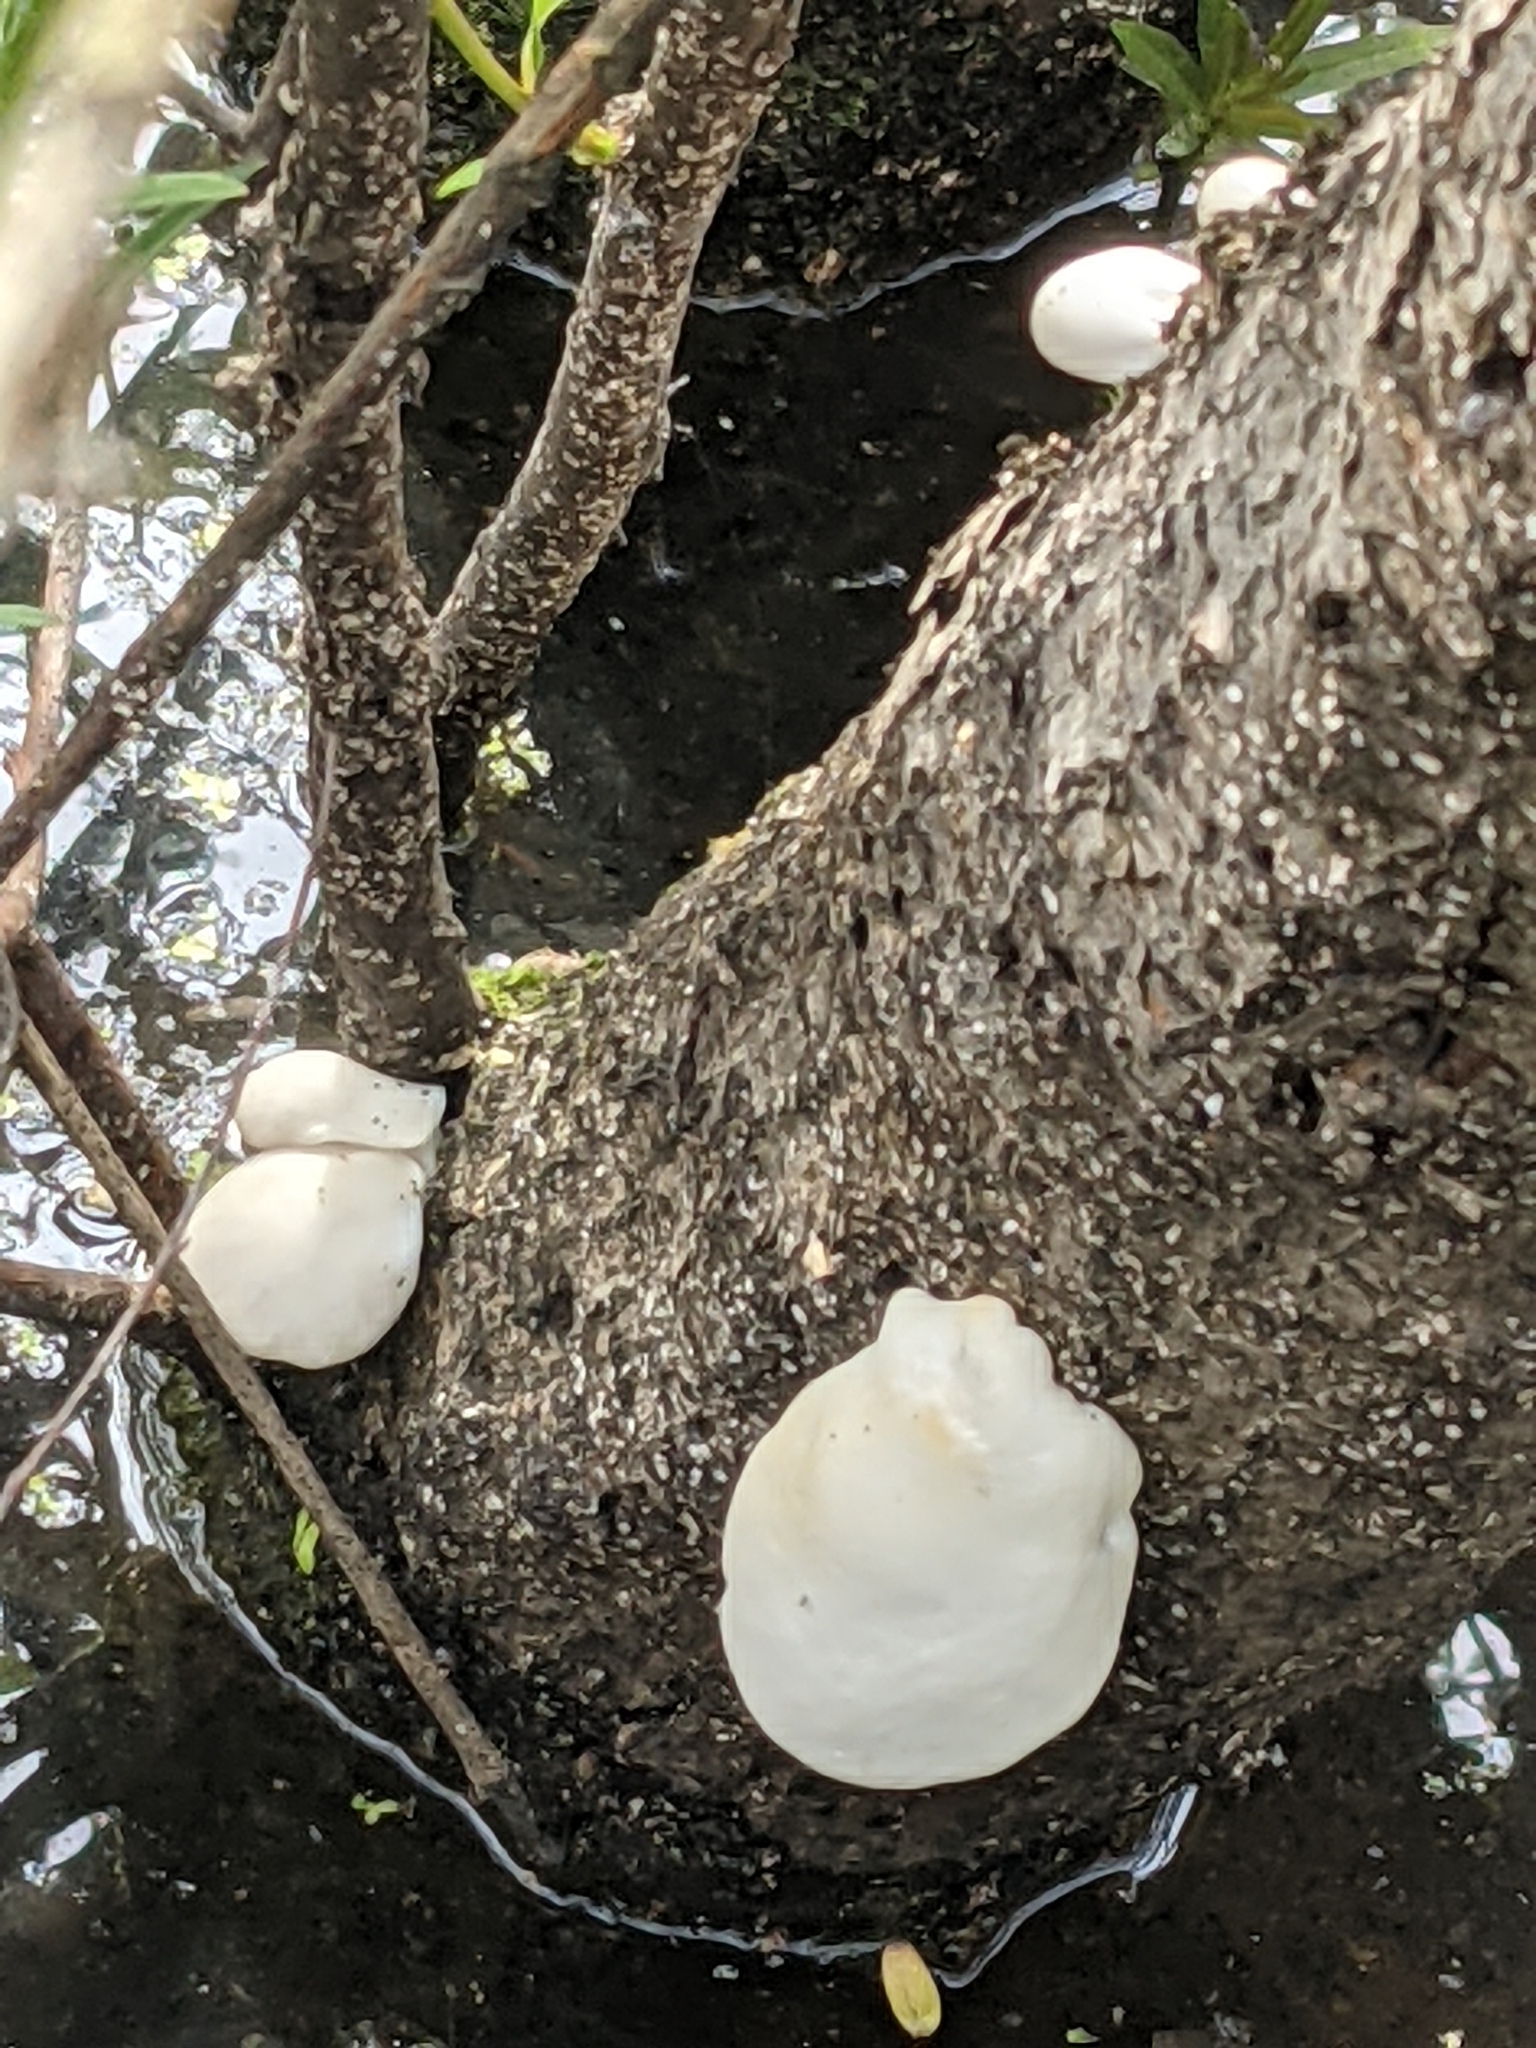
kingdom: Protozoa
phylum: Mycetozoa
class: Myxomycetes
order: Cribrariales
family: Tubiferaceae
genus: Reticularia
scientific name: Reticularia lycoperdon
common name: False puffball
